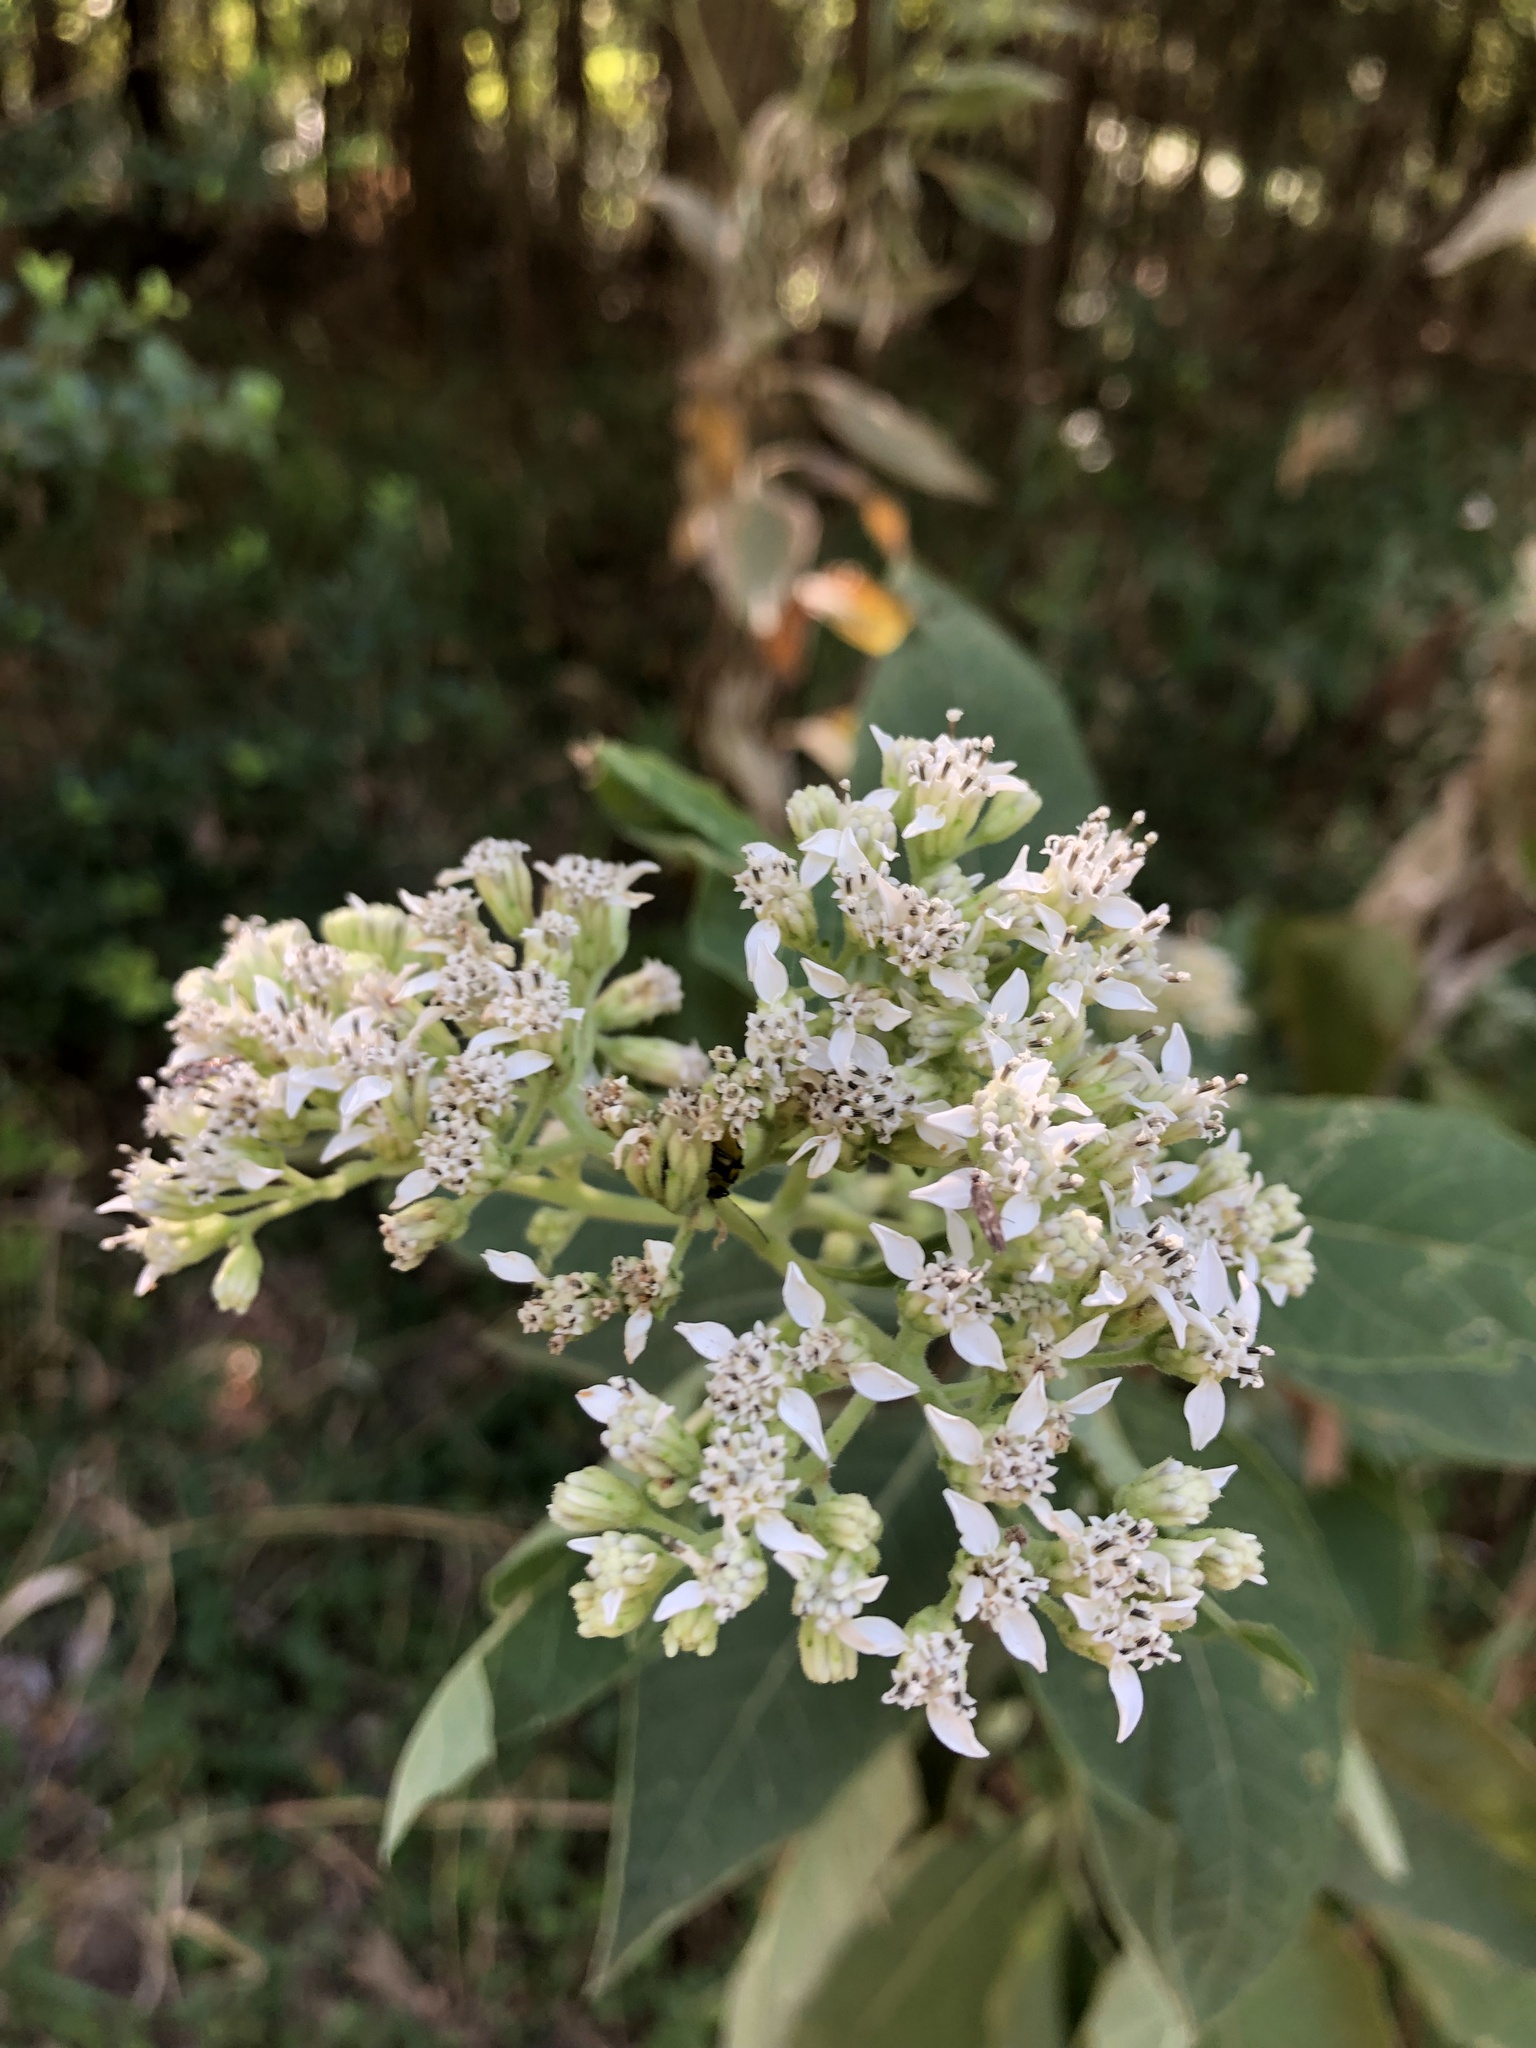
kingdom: Plantae
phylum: Tracheophyta
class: Magnoliopsida
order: Asterales
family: Asteraceae
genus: Verbesina
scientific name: Verbesina virginica
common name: Frostweed
